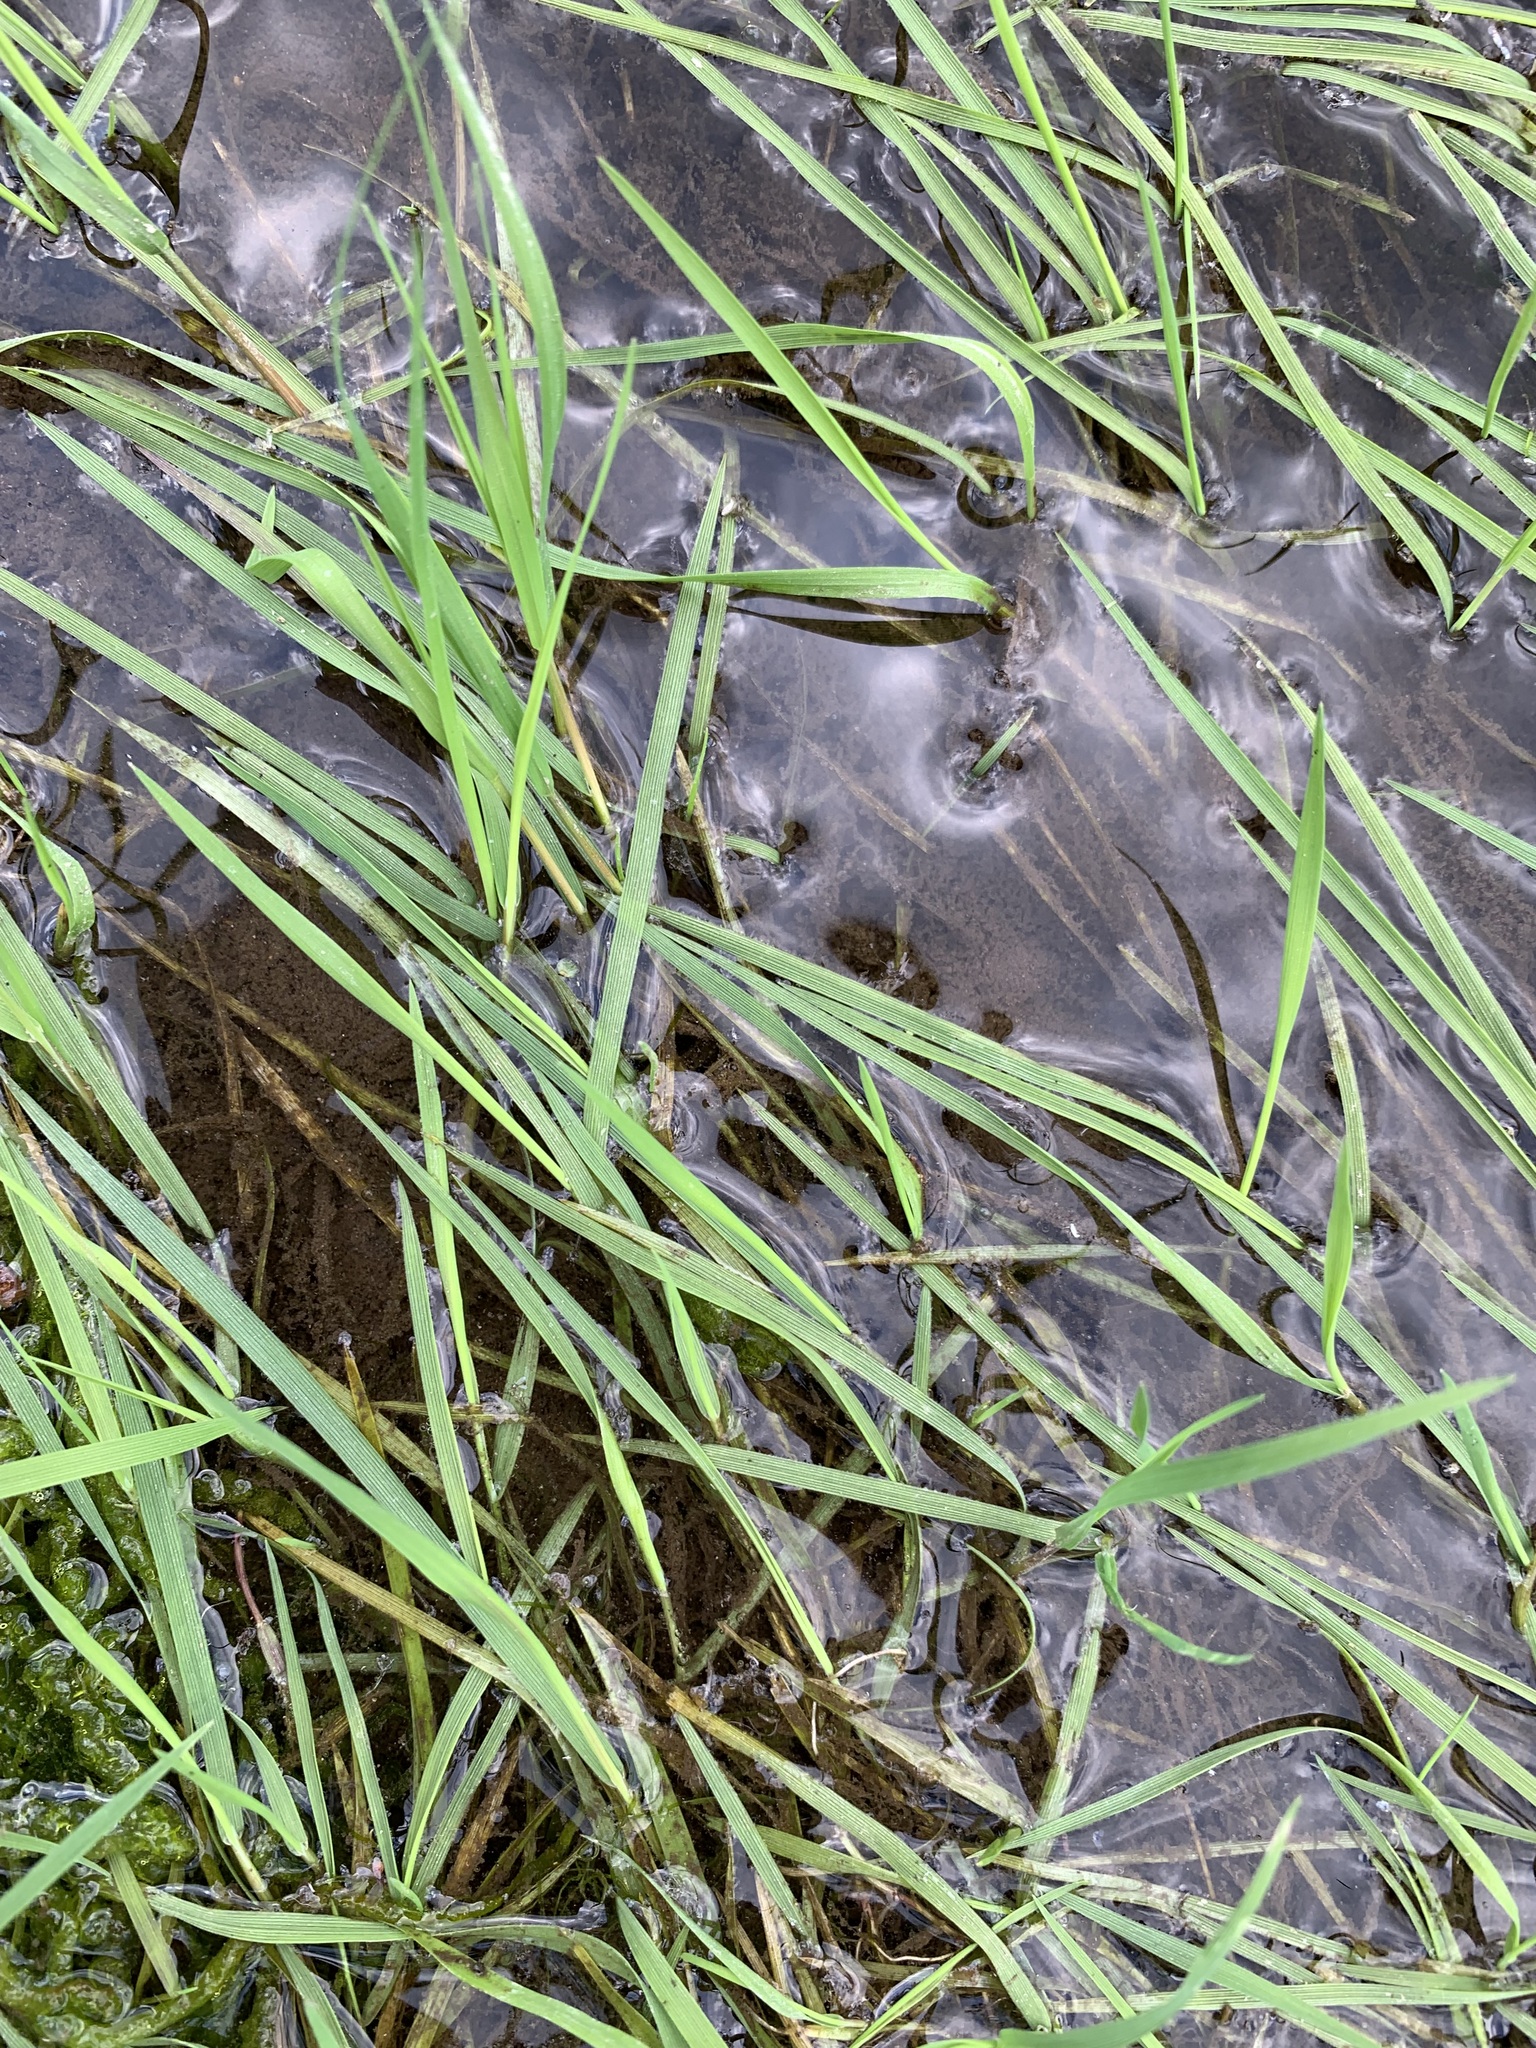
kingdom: Plantae
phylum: Tracheophyta
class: Liliopsida
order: Poales
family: Poaceae
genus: Agrostis
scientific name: Agrostis stolonifera
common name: Creeping bentgrass
